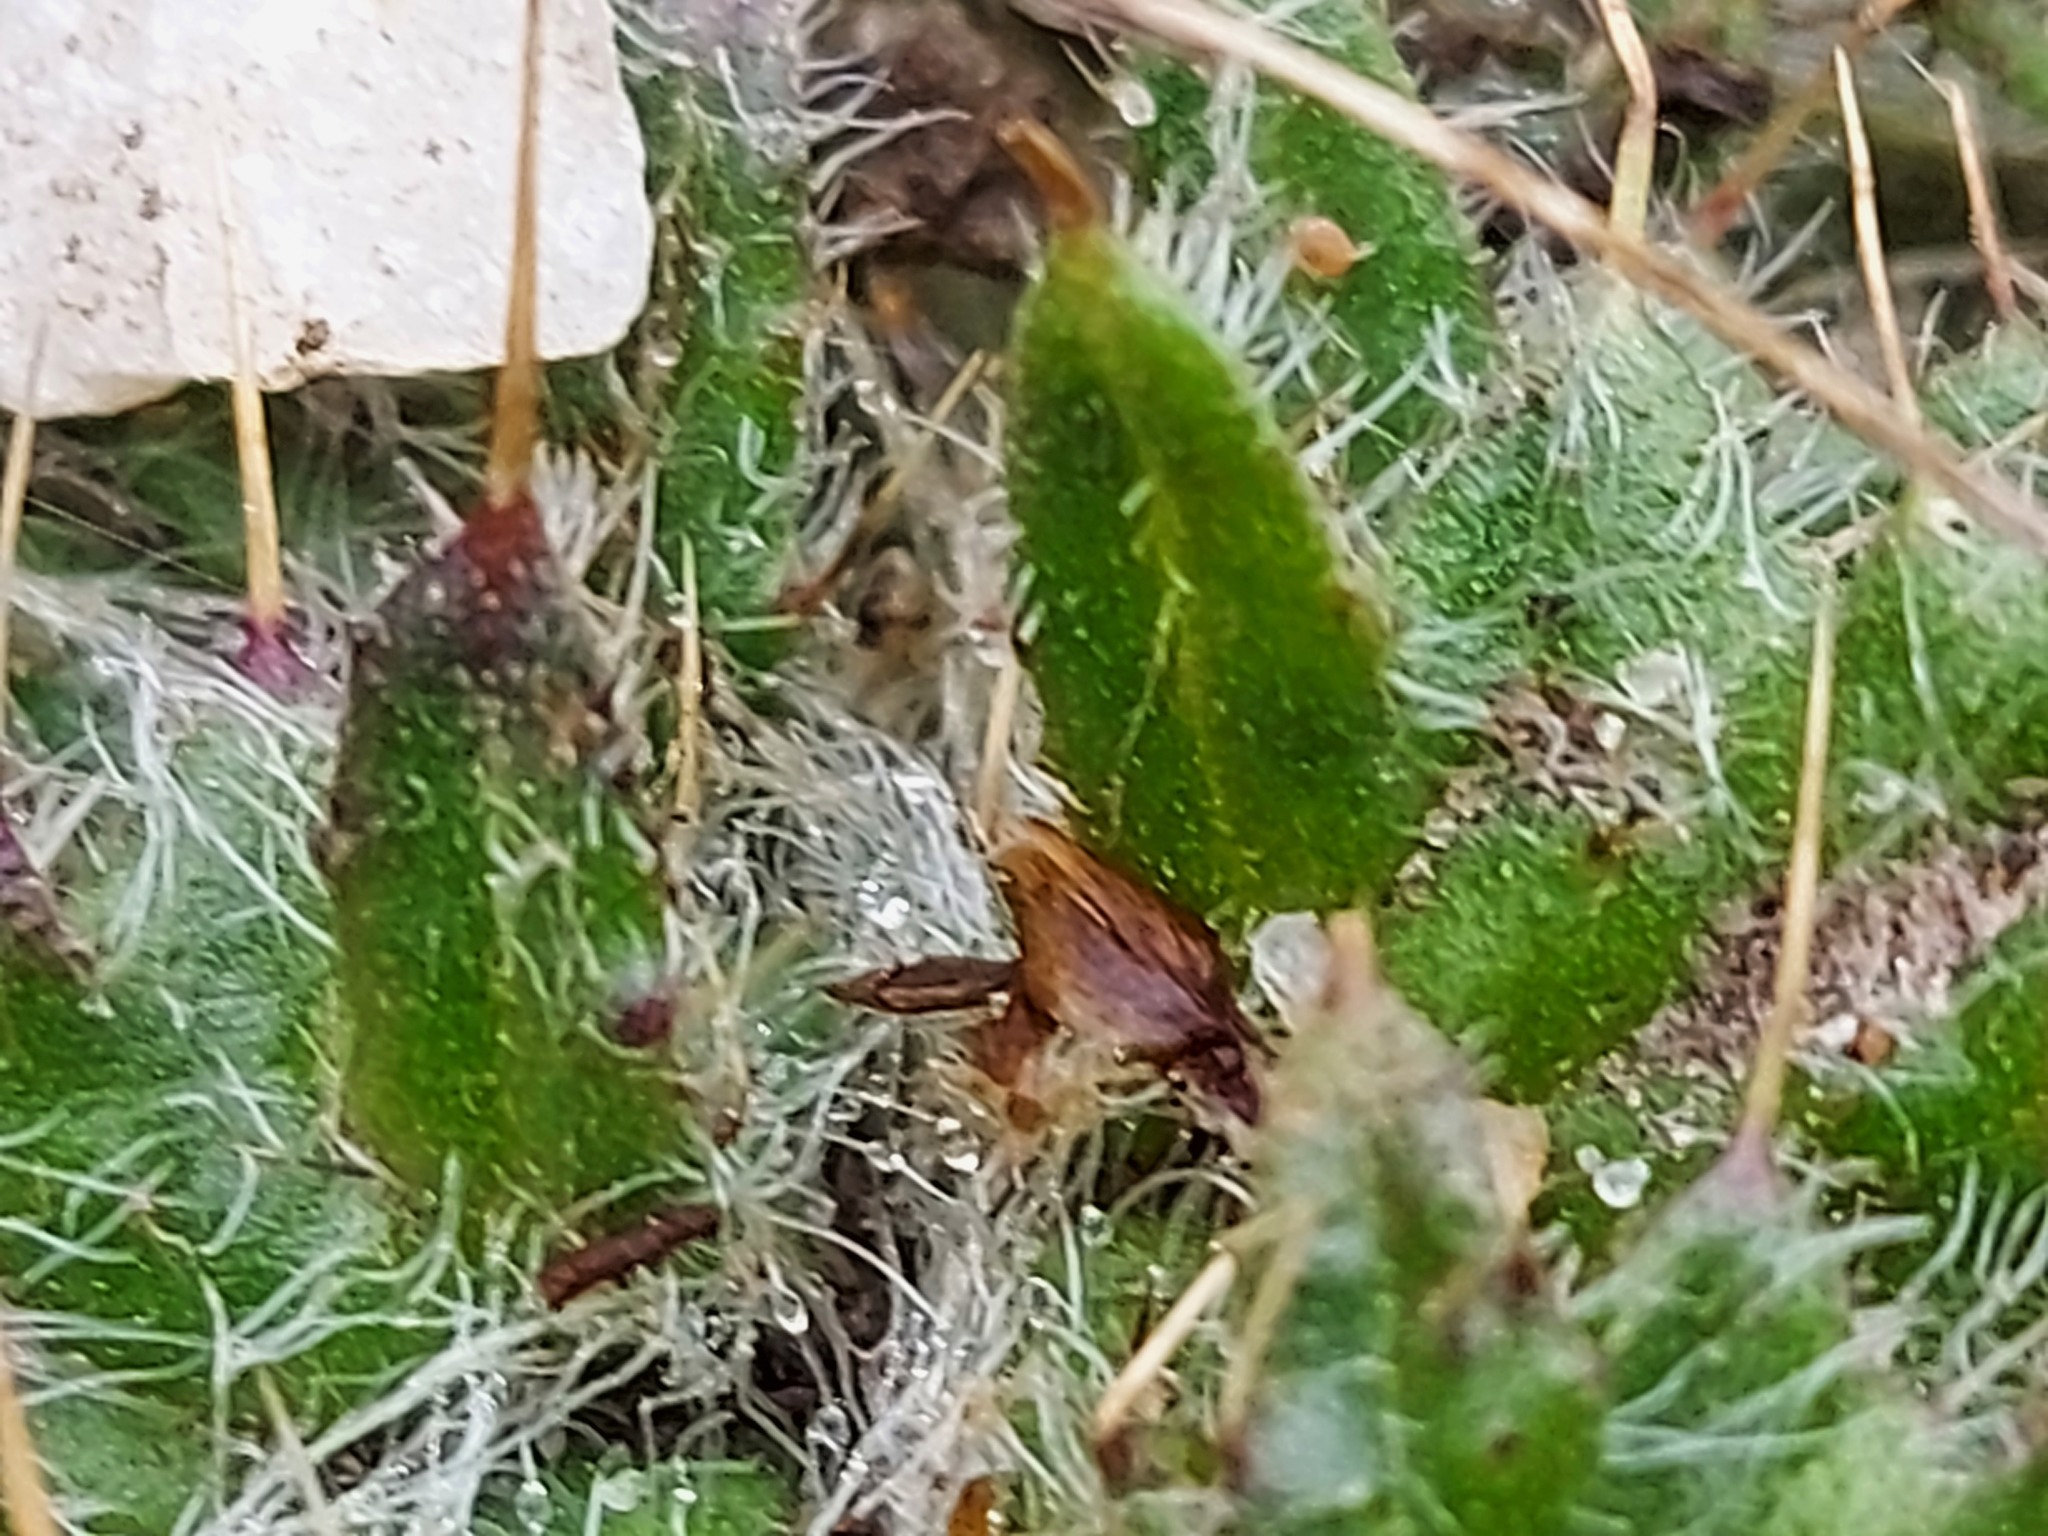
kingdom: Plantae
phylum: Tracheophyta
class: Magnoliopsida
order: Asterales
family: Asteraceae
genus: Cirsium
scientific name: Cirsium vulgare
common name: Bull thistle
